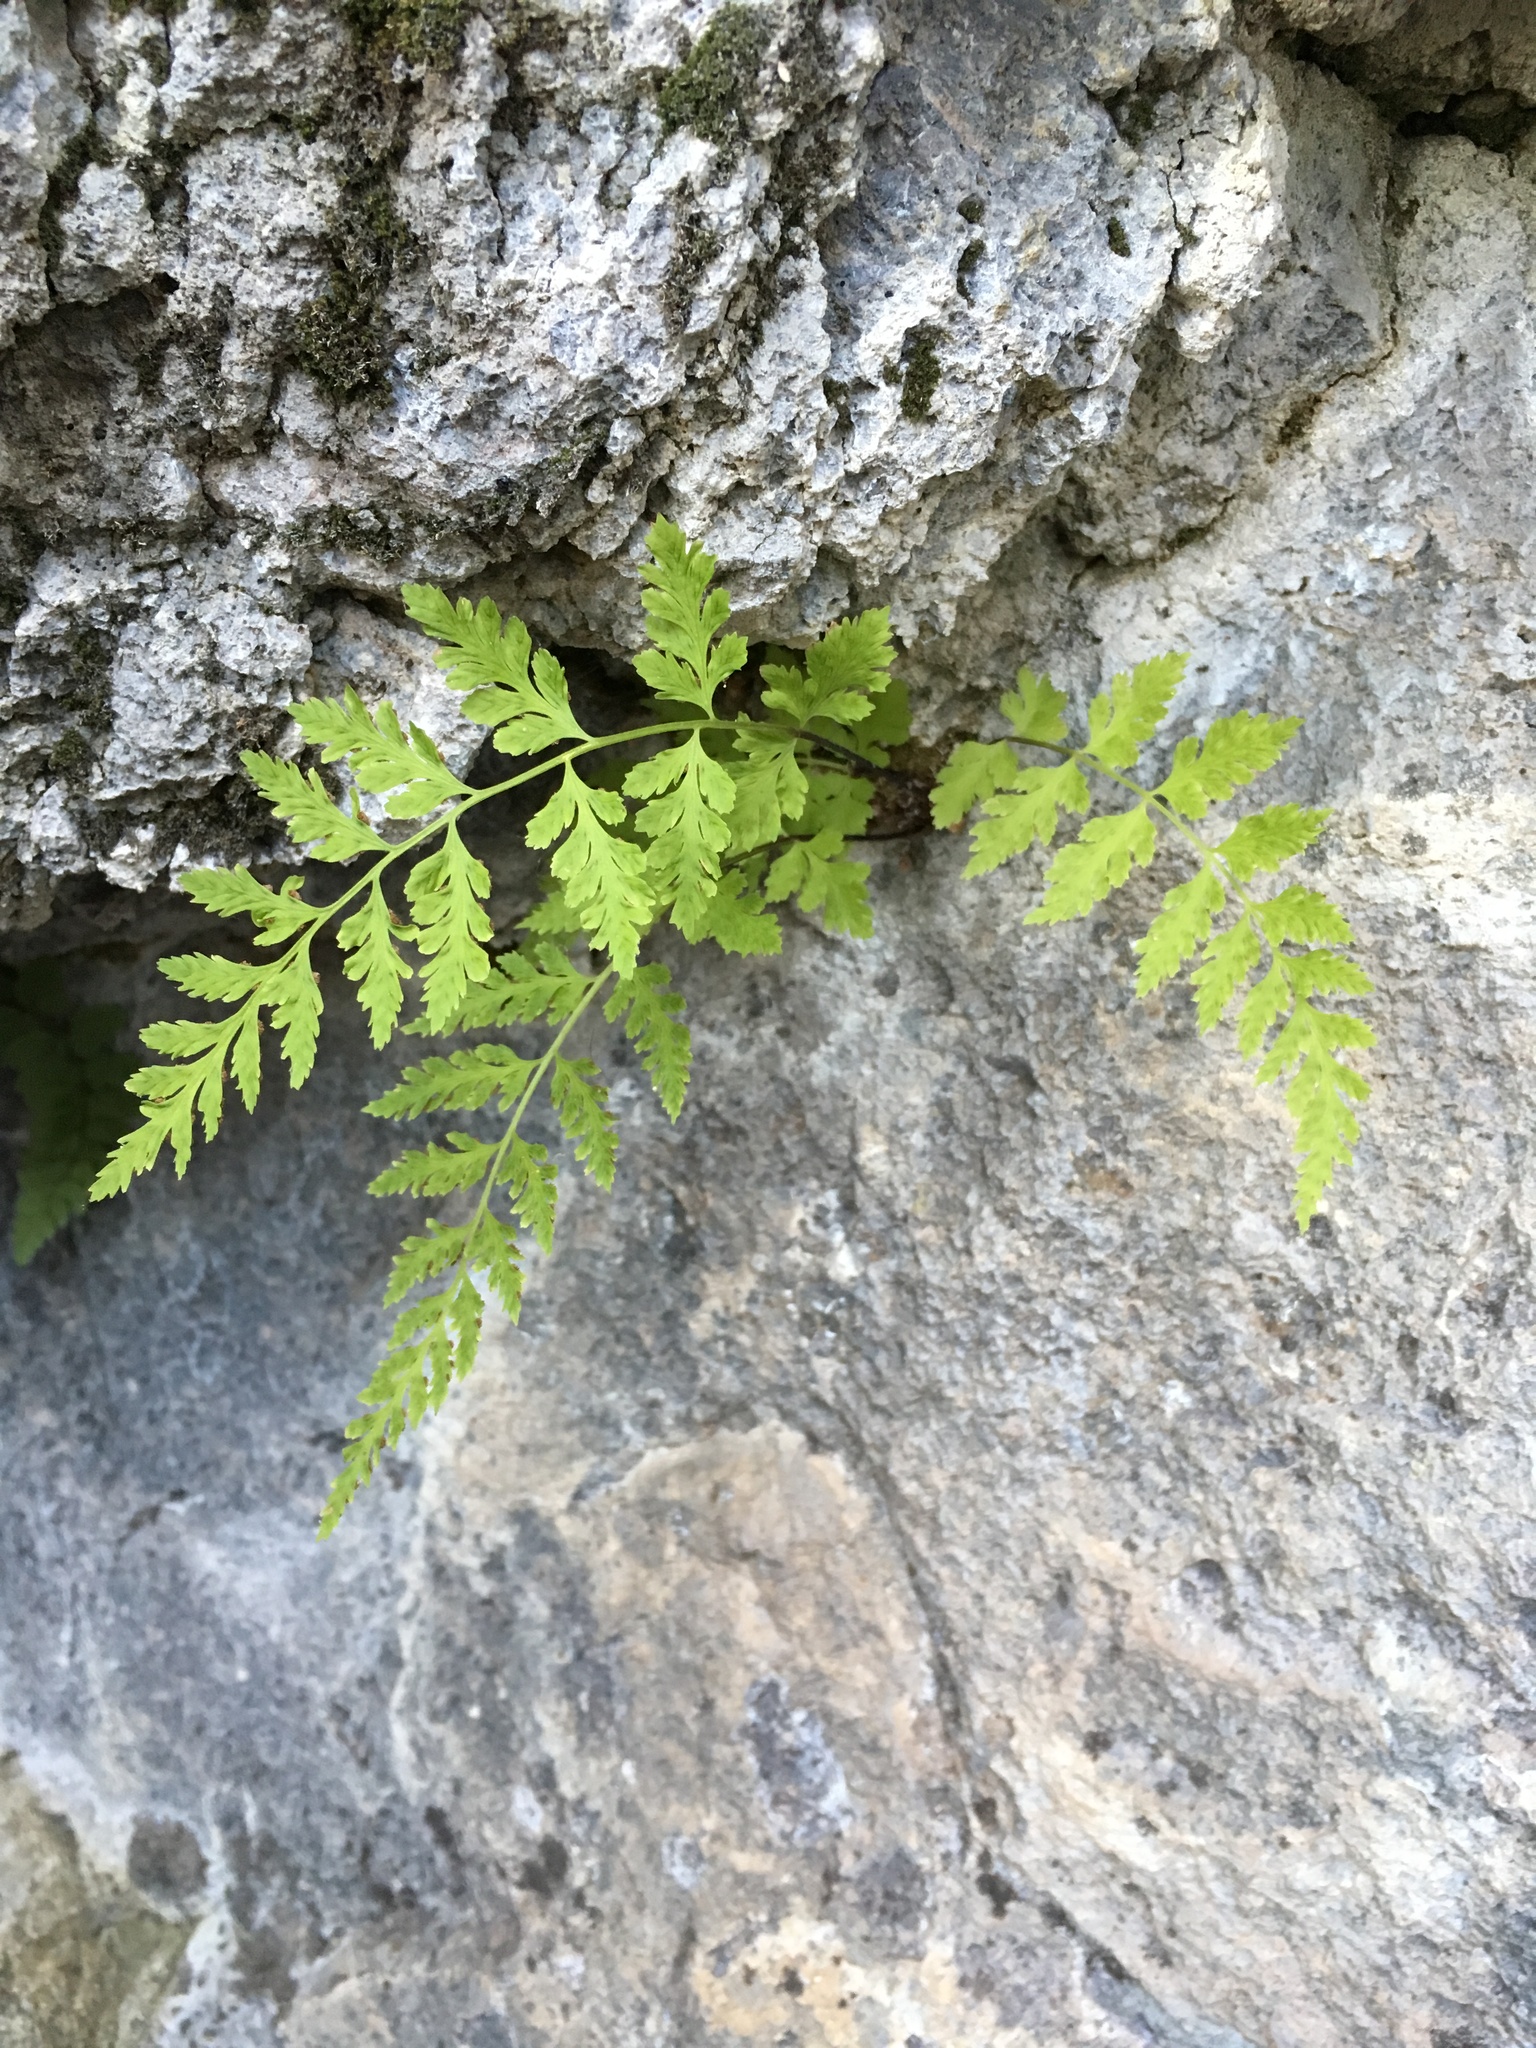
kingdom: Plantae
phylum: Tracheophyta
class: Polypodiopsida
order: Polypodiales
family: Cystopteridaceae
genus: Cystopteris
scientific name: Cystopteris fragilis
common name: Brittle bladder fern
